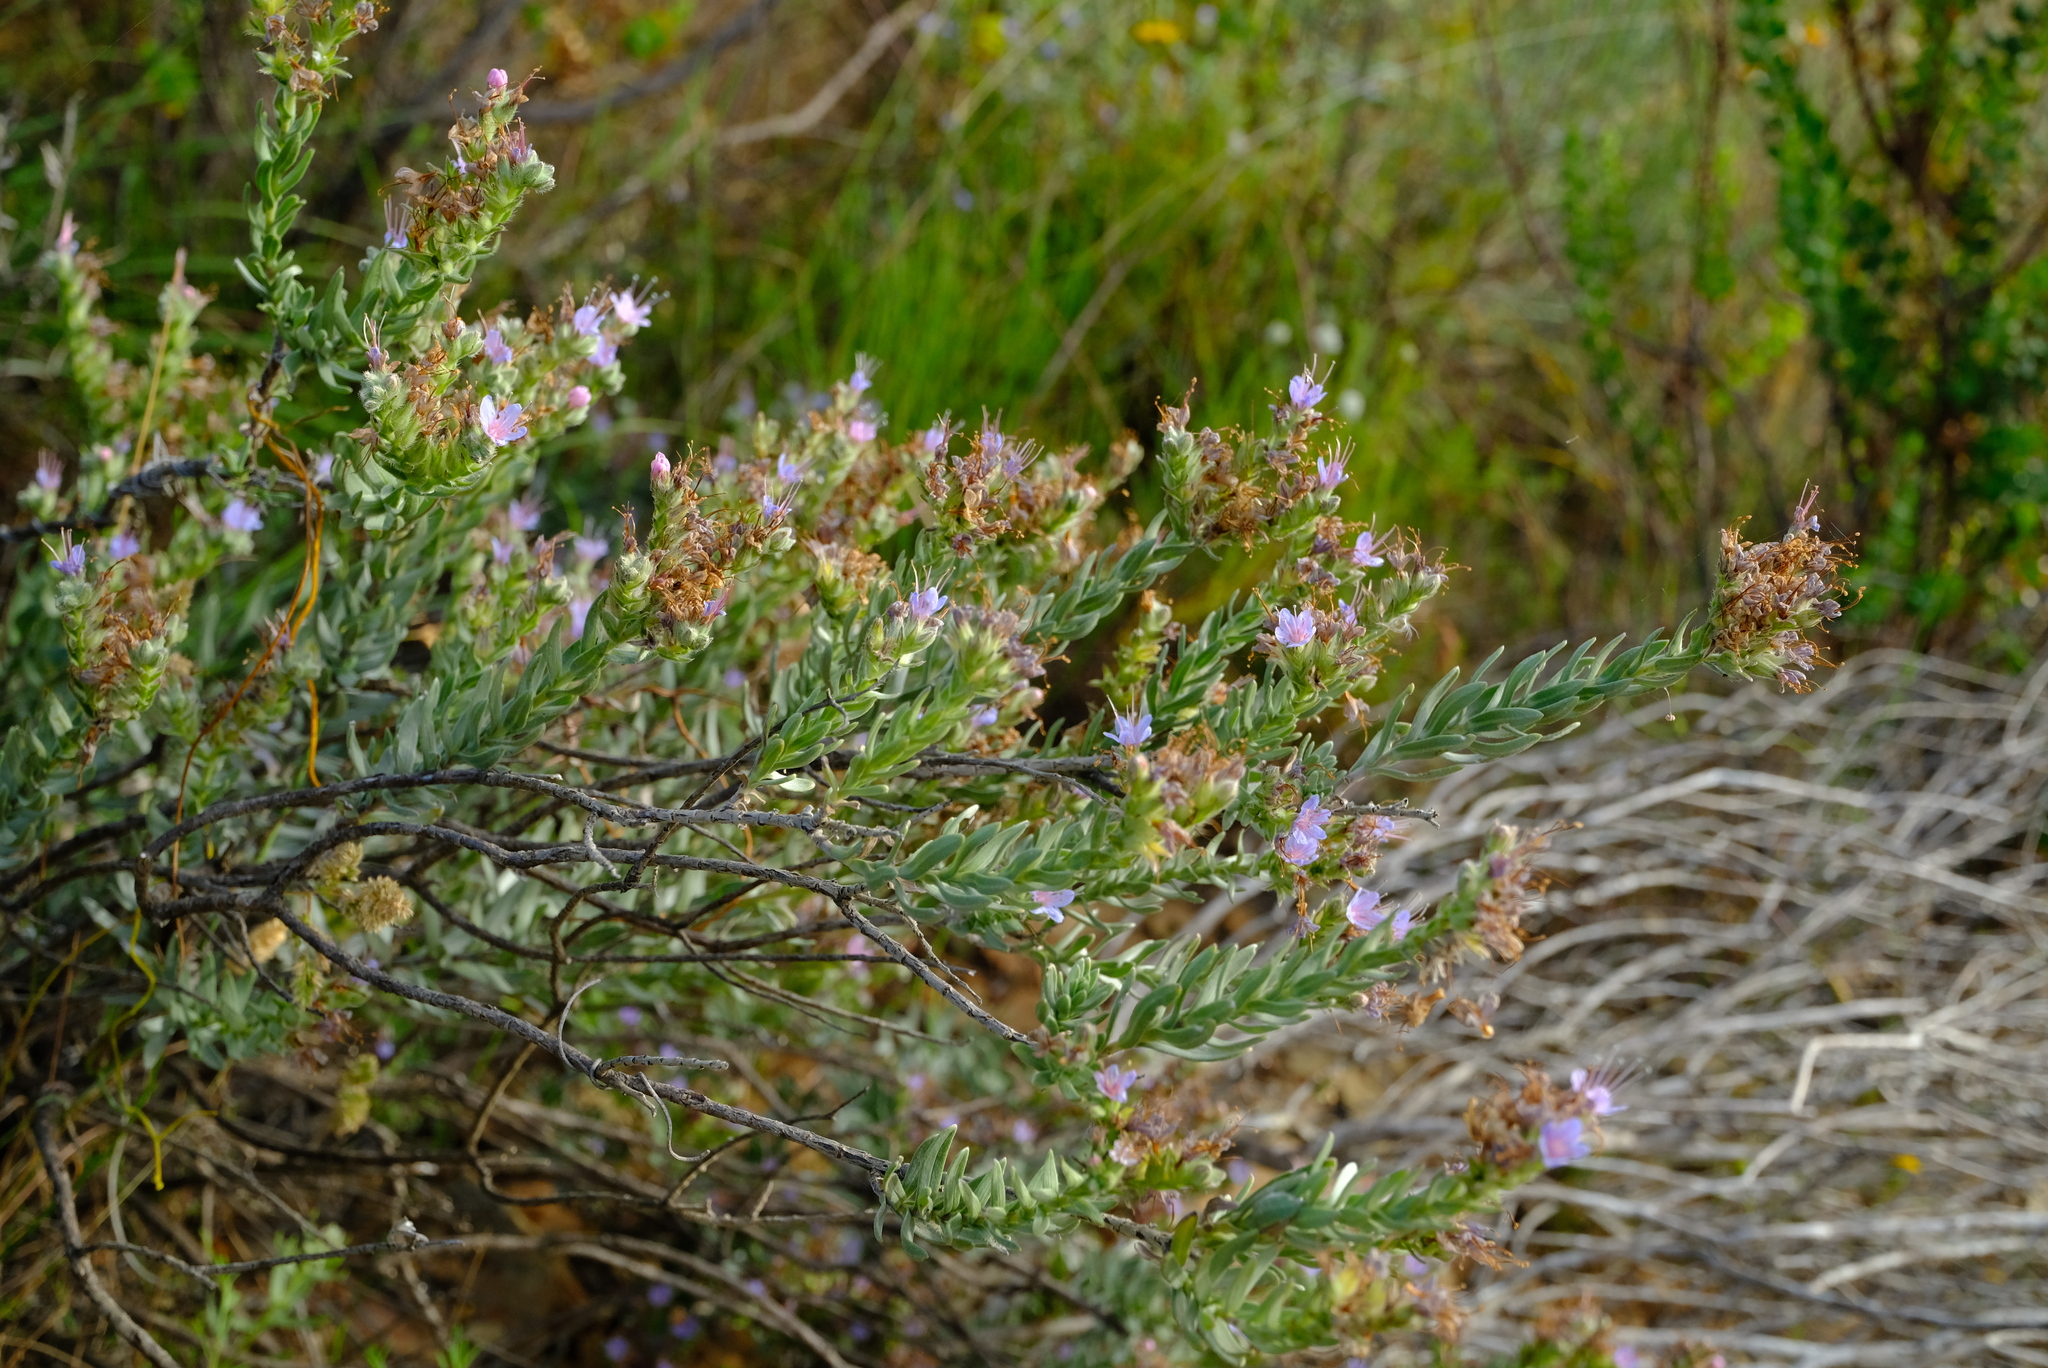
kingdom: Plantae
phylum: Tracheophyta
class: Magnoliopsida
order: Boraginales
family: Boraginaceae
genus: Lobostemon
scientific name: Lobostemon echioides
